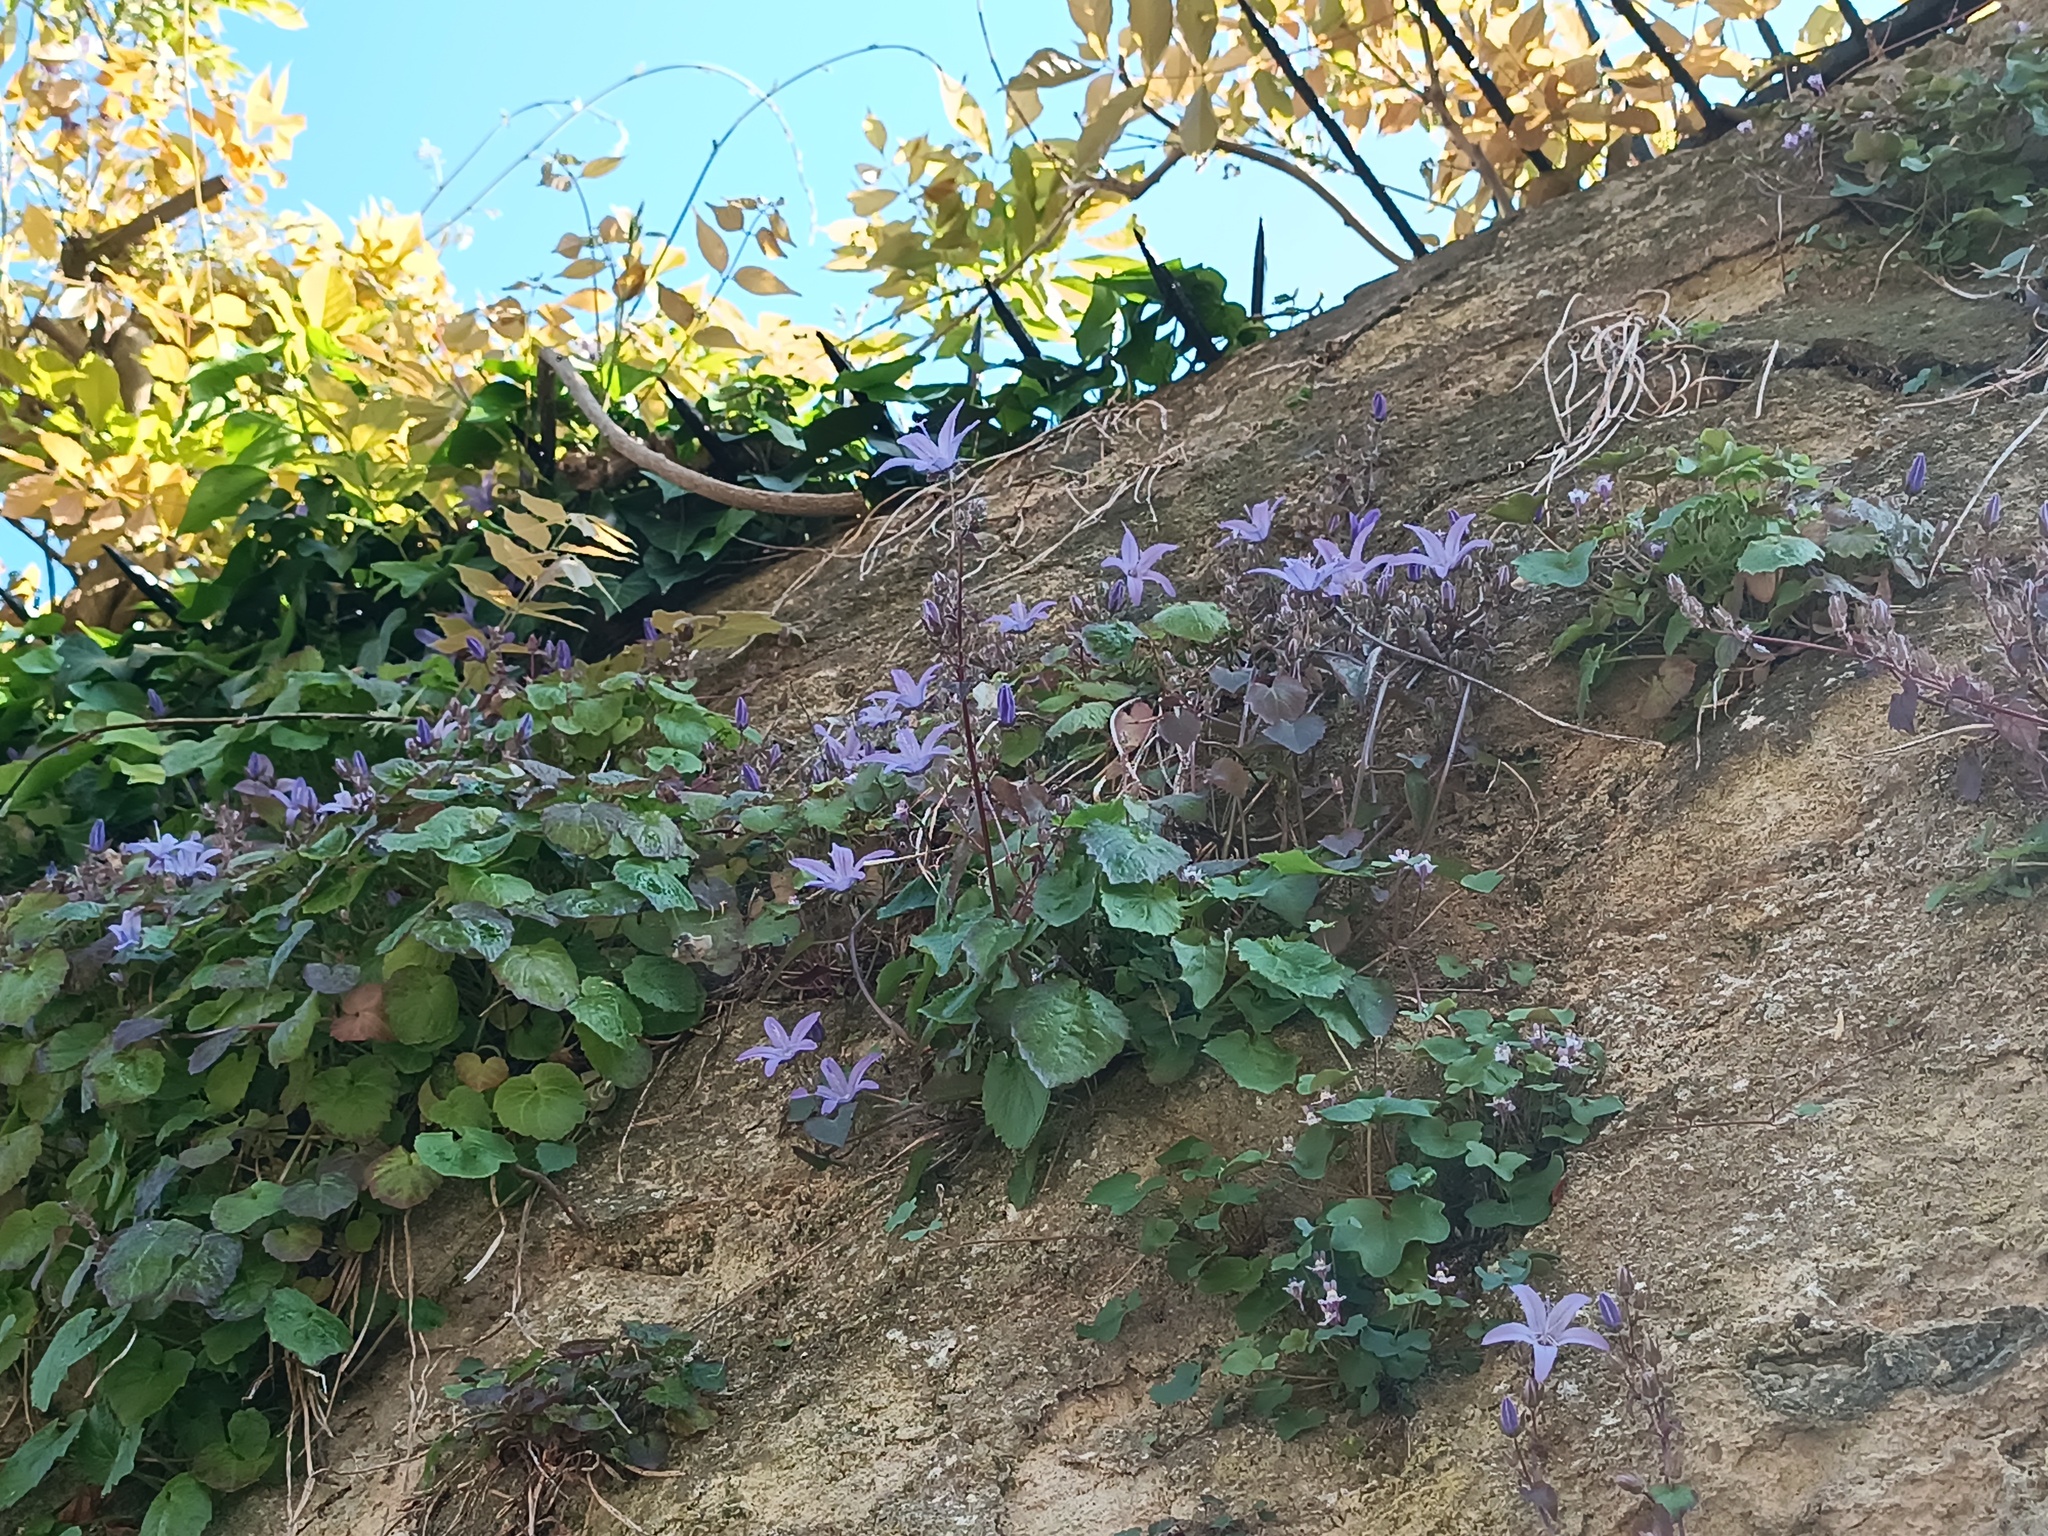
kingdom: Plantae
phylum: Tracheophyta
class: Magnoliopsida
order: Asterales
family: Campanulaceae
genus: Campanula
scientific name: Campanula poscharskyana
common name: Trailing bellflower
